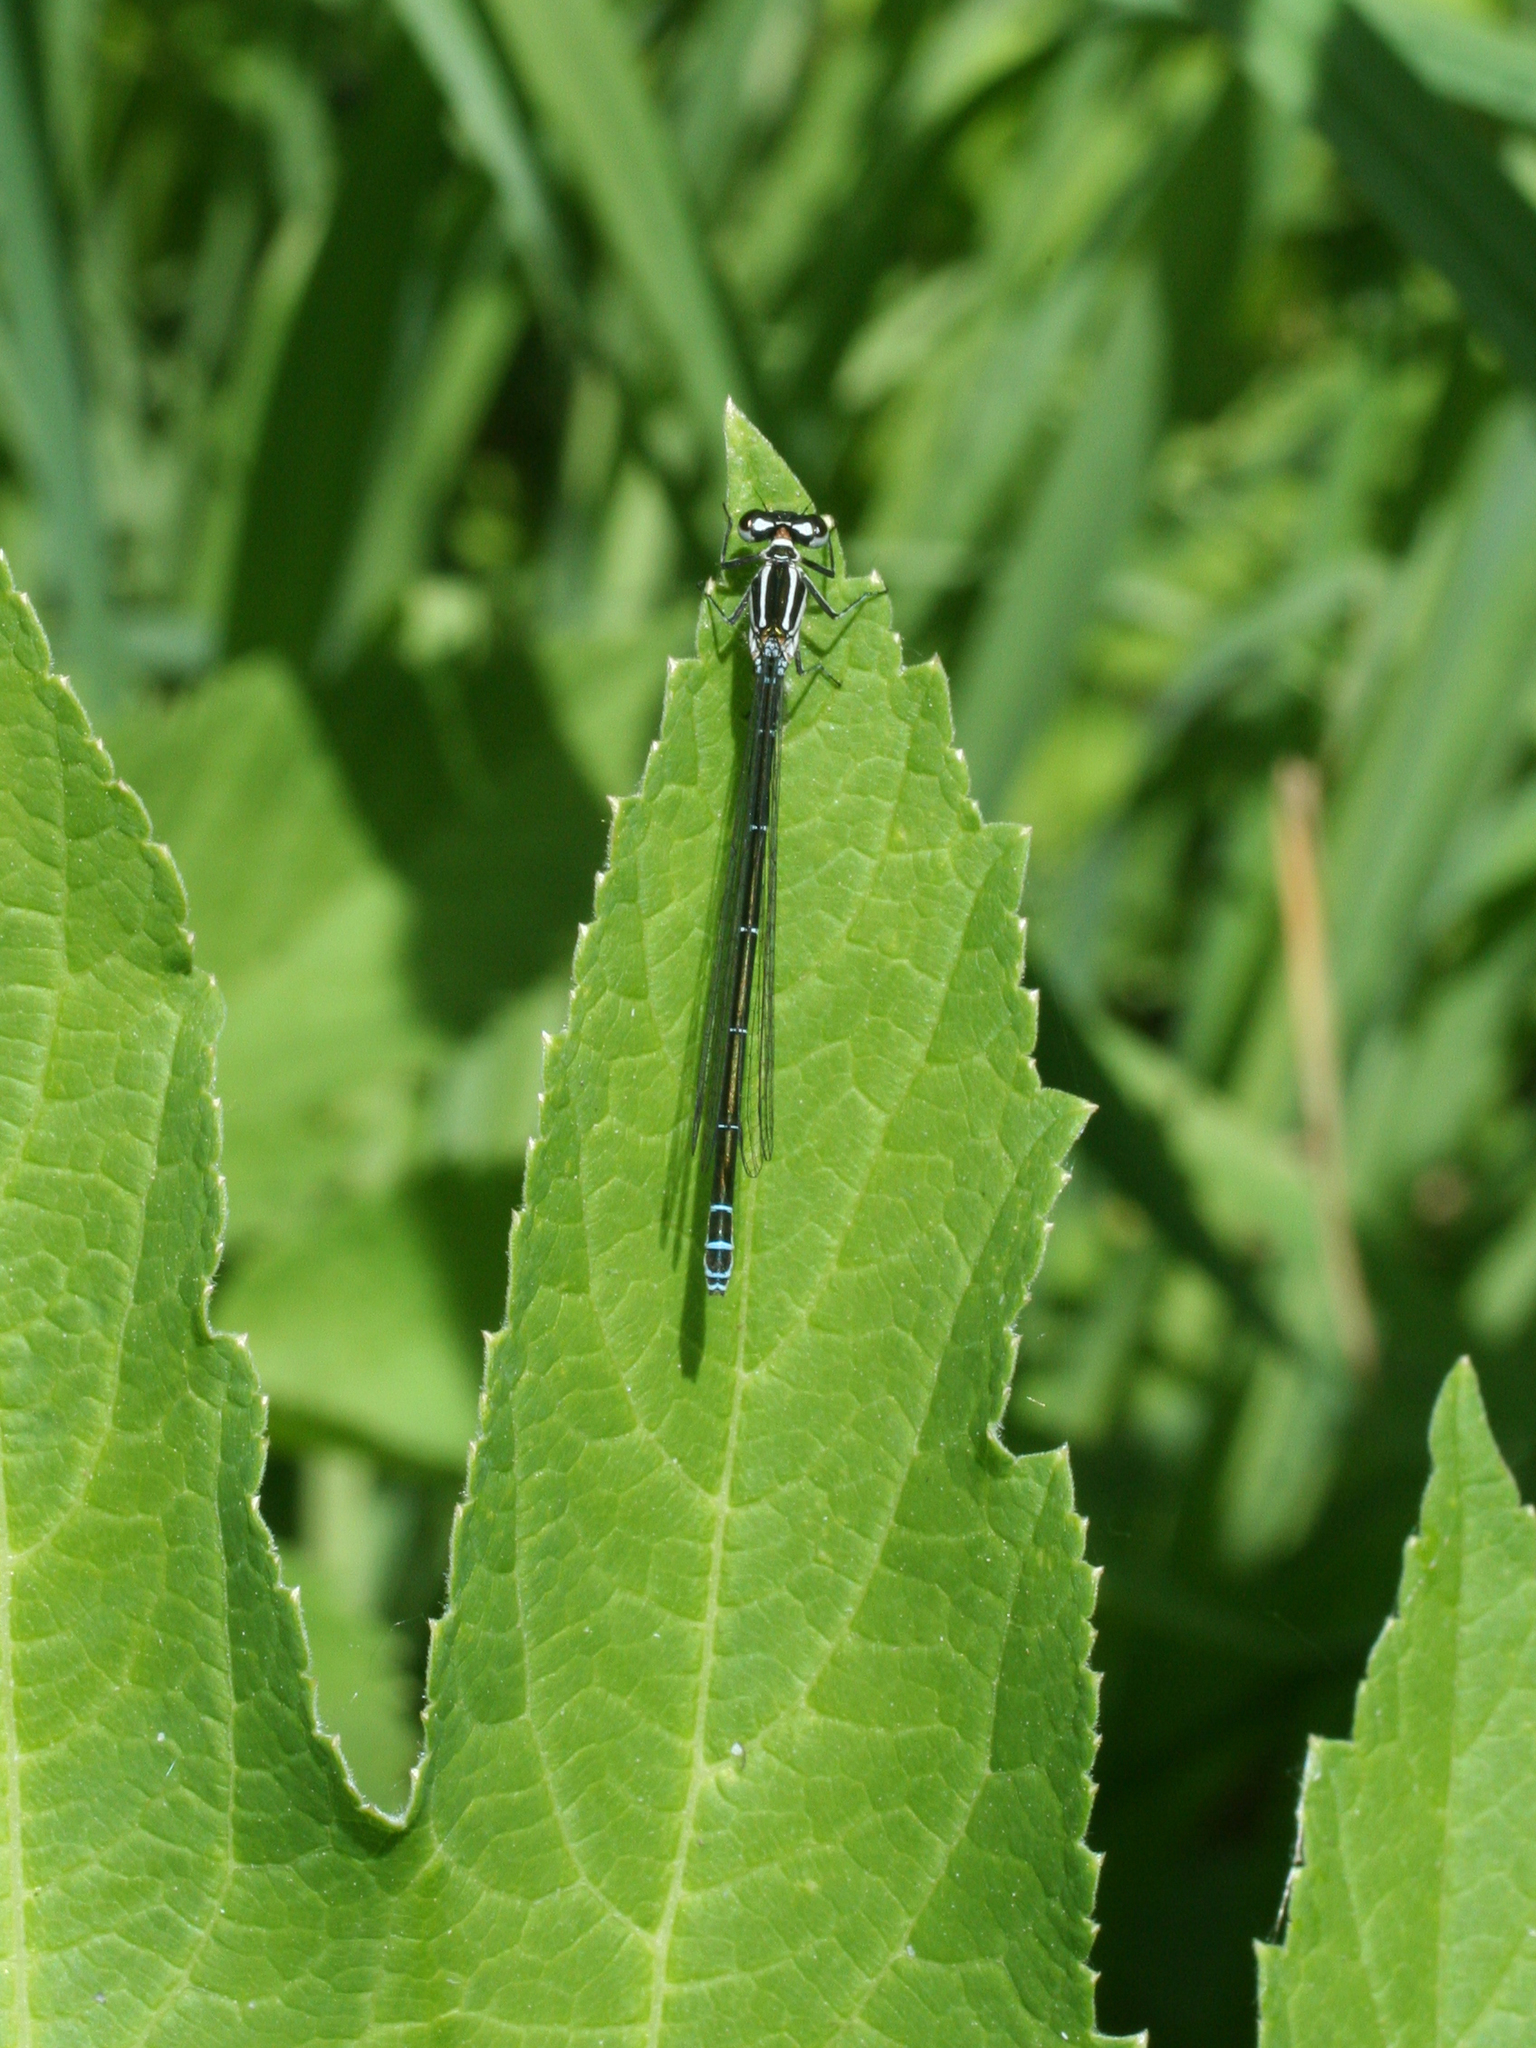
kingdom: Animalia
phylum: Arthropoda
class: Insecta
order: Odonata
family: Coenagrionidae
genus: Coenagrion
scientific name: Coenagrion puella
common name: Azure damselfly
